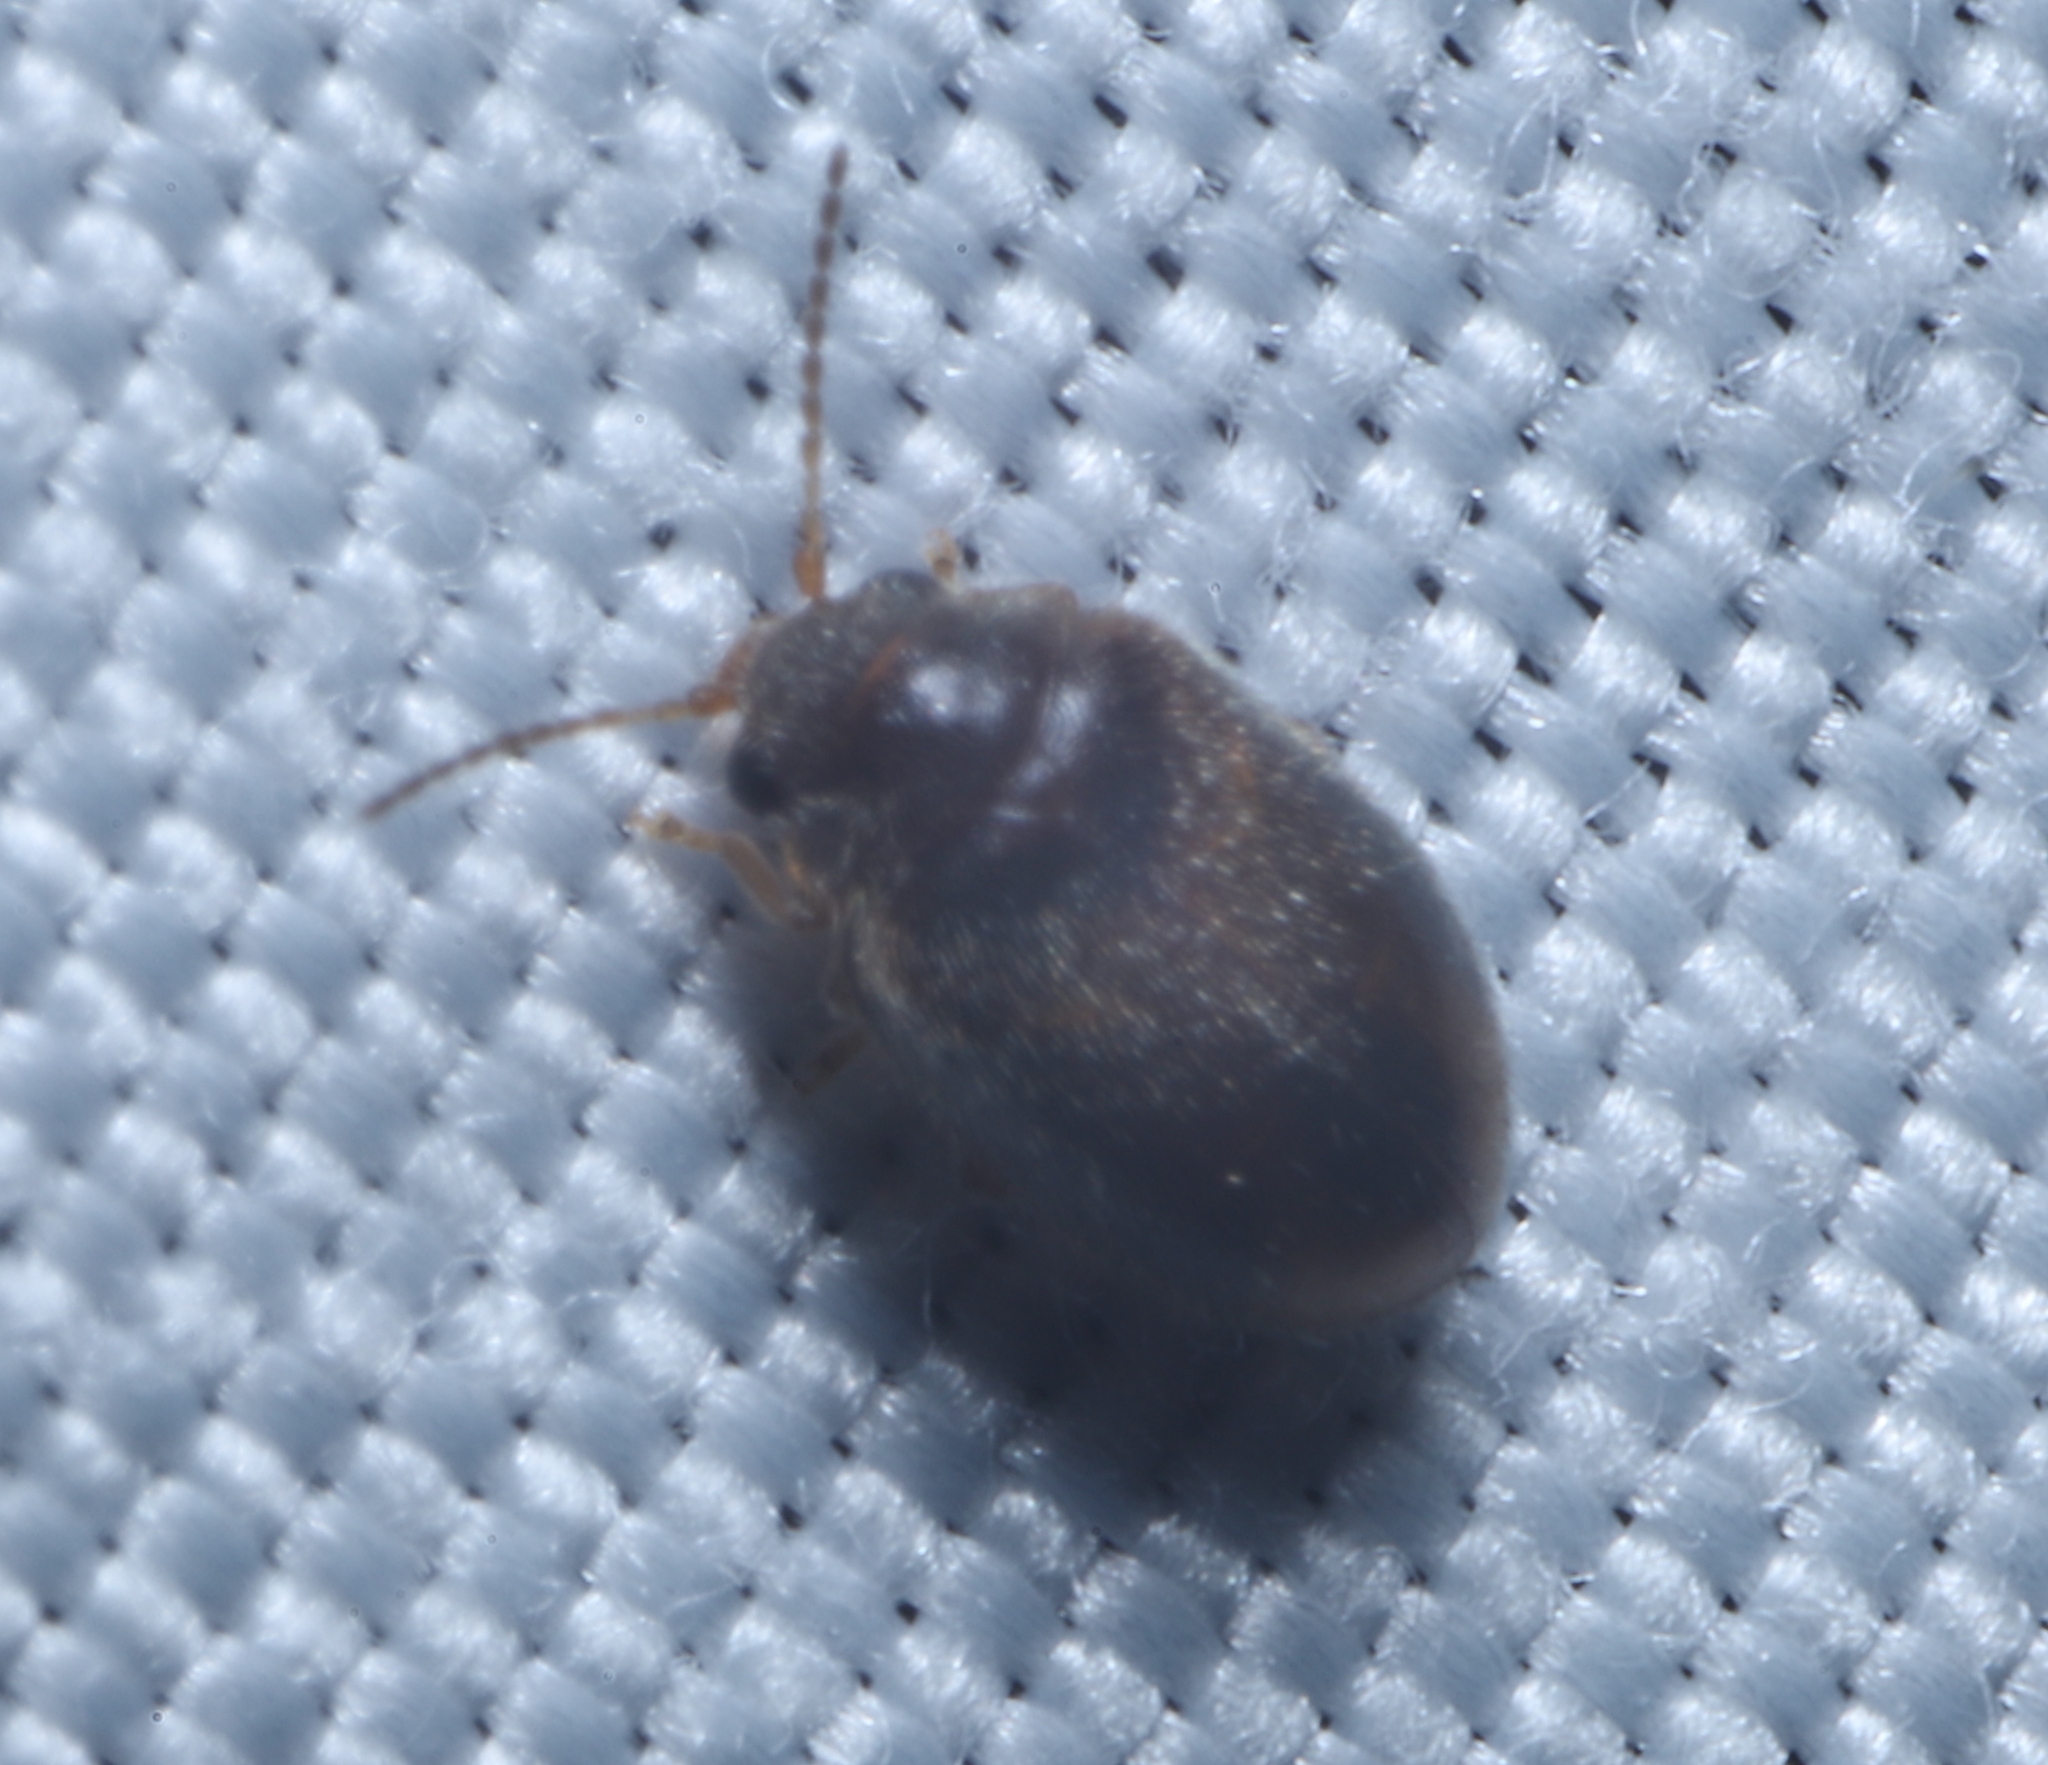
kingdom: Animalia
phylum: Arthropoda
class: Insecta
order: Coleoptera
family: Scirtidae
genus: Contacyphon
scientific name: Contacyphon
